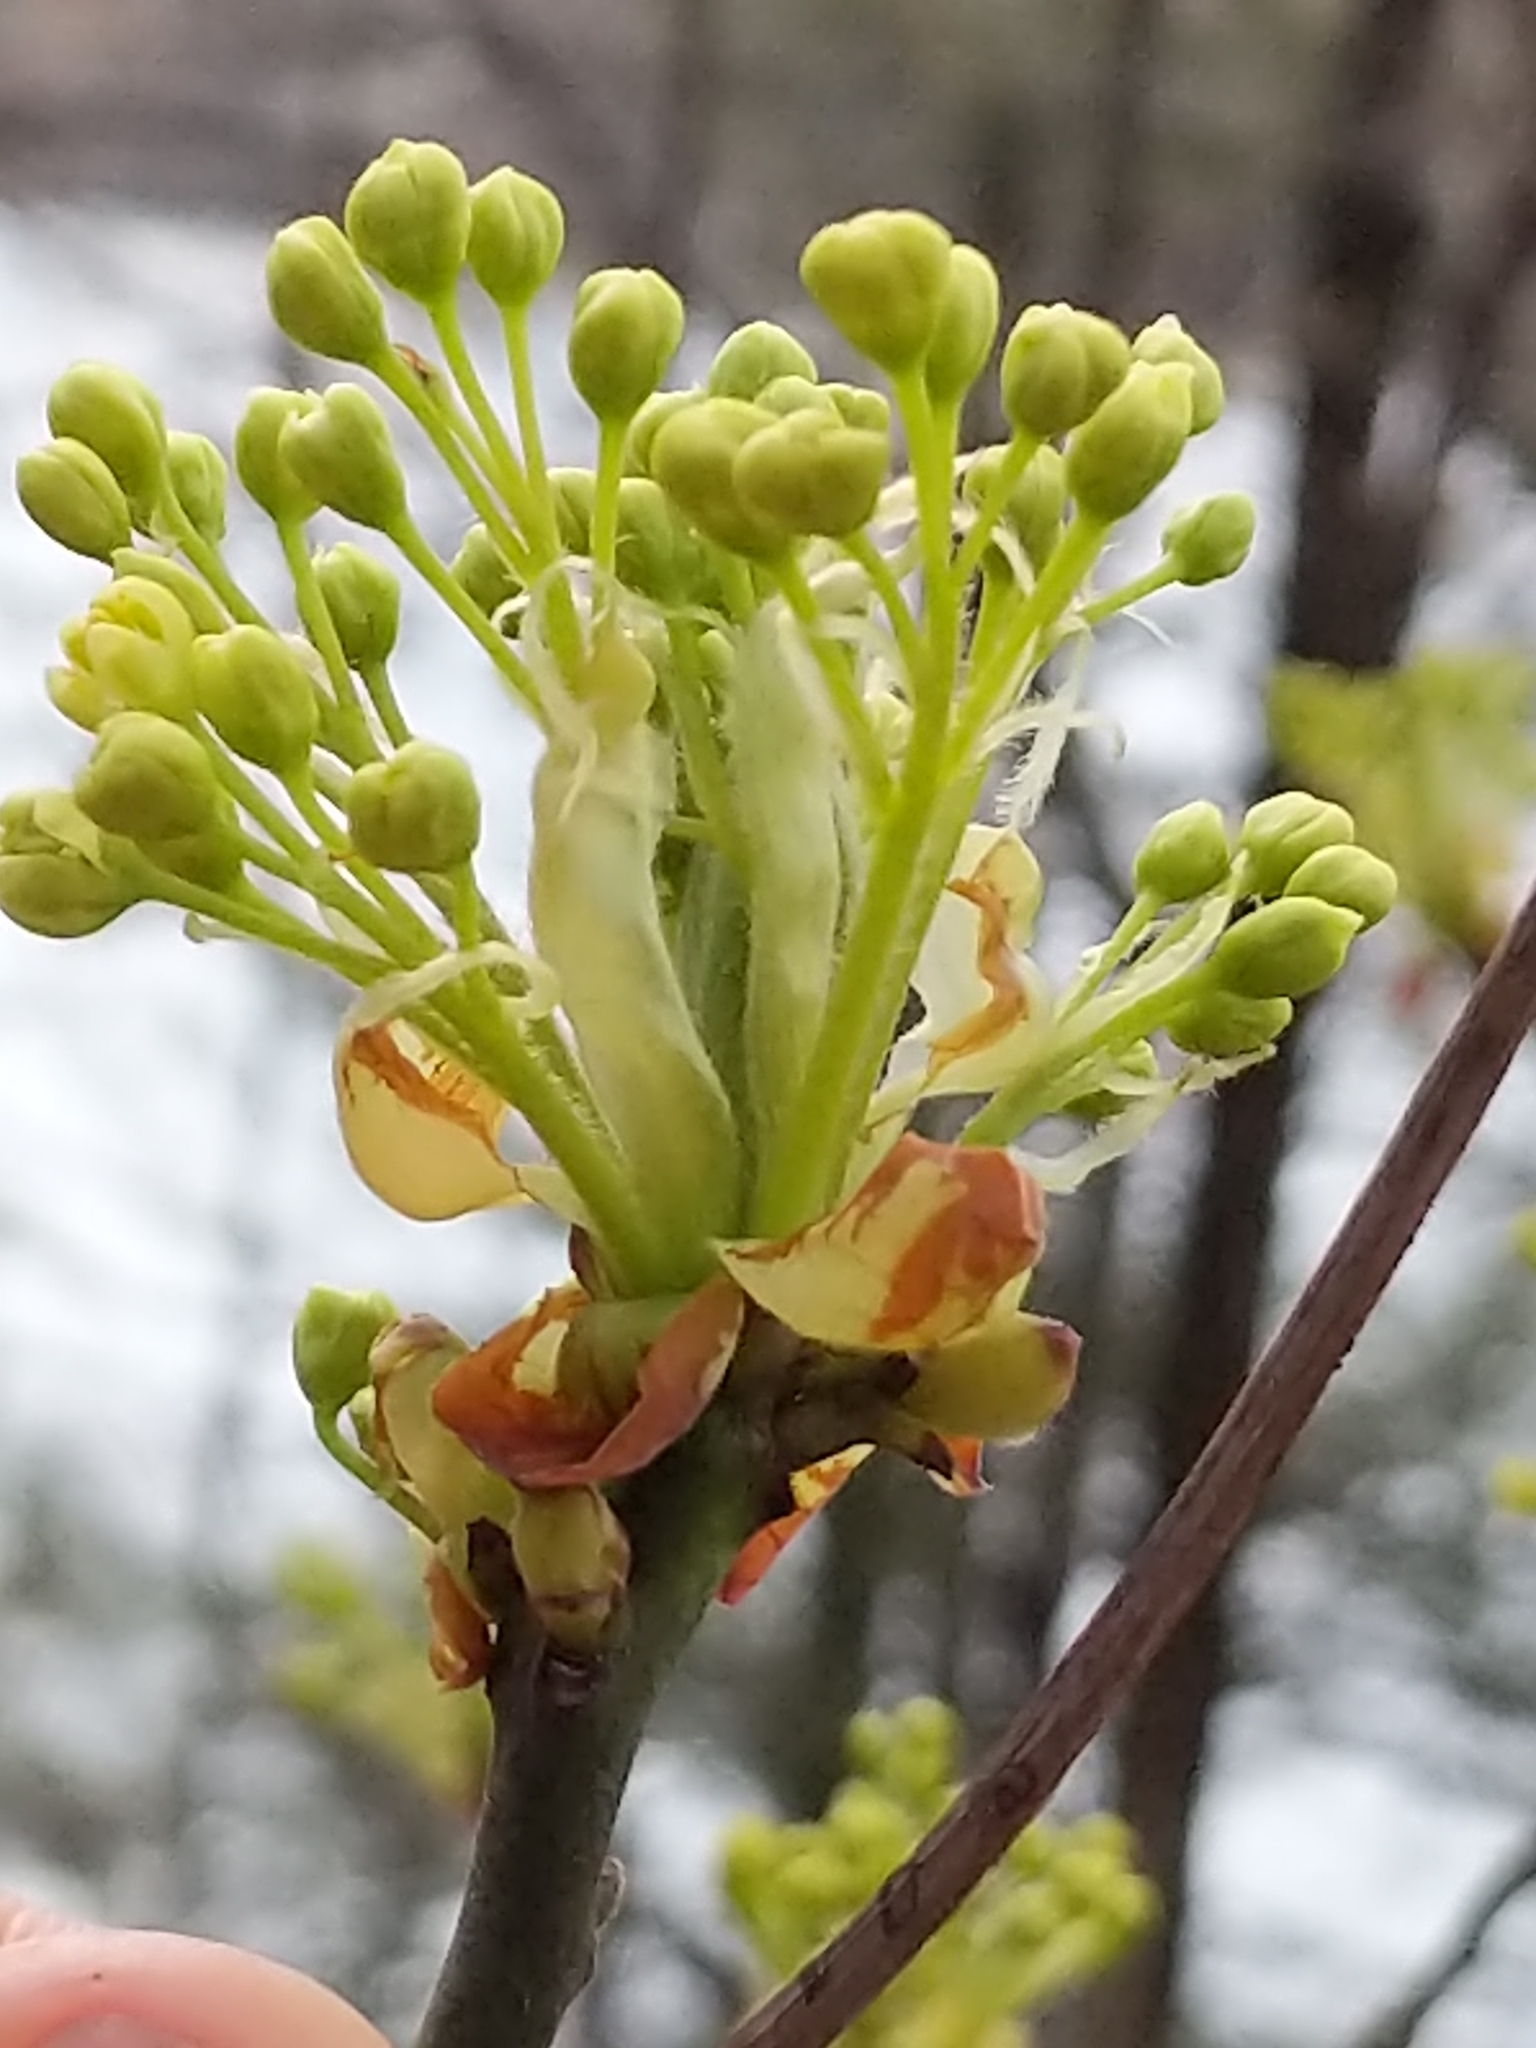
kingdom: Plantae
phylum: Tracheophyta
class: Magnoliopsida
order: Laurales
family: Lauraceae
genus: Sassafras
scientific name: Sassafras albidum
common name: Sassafras
